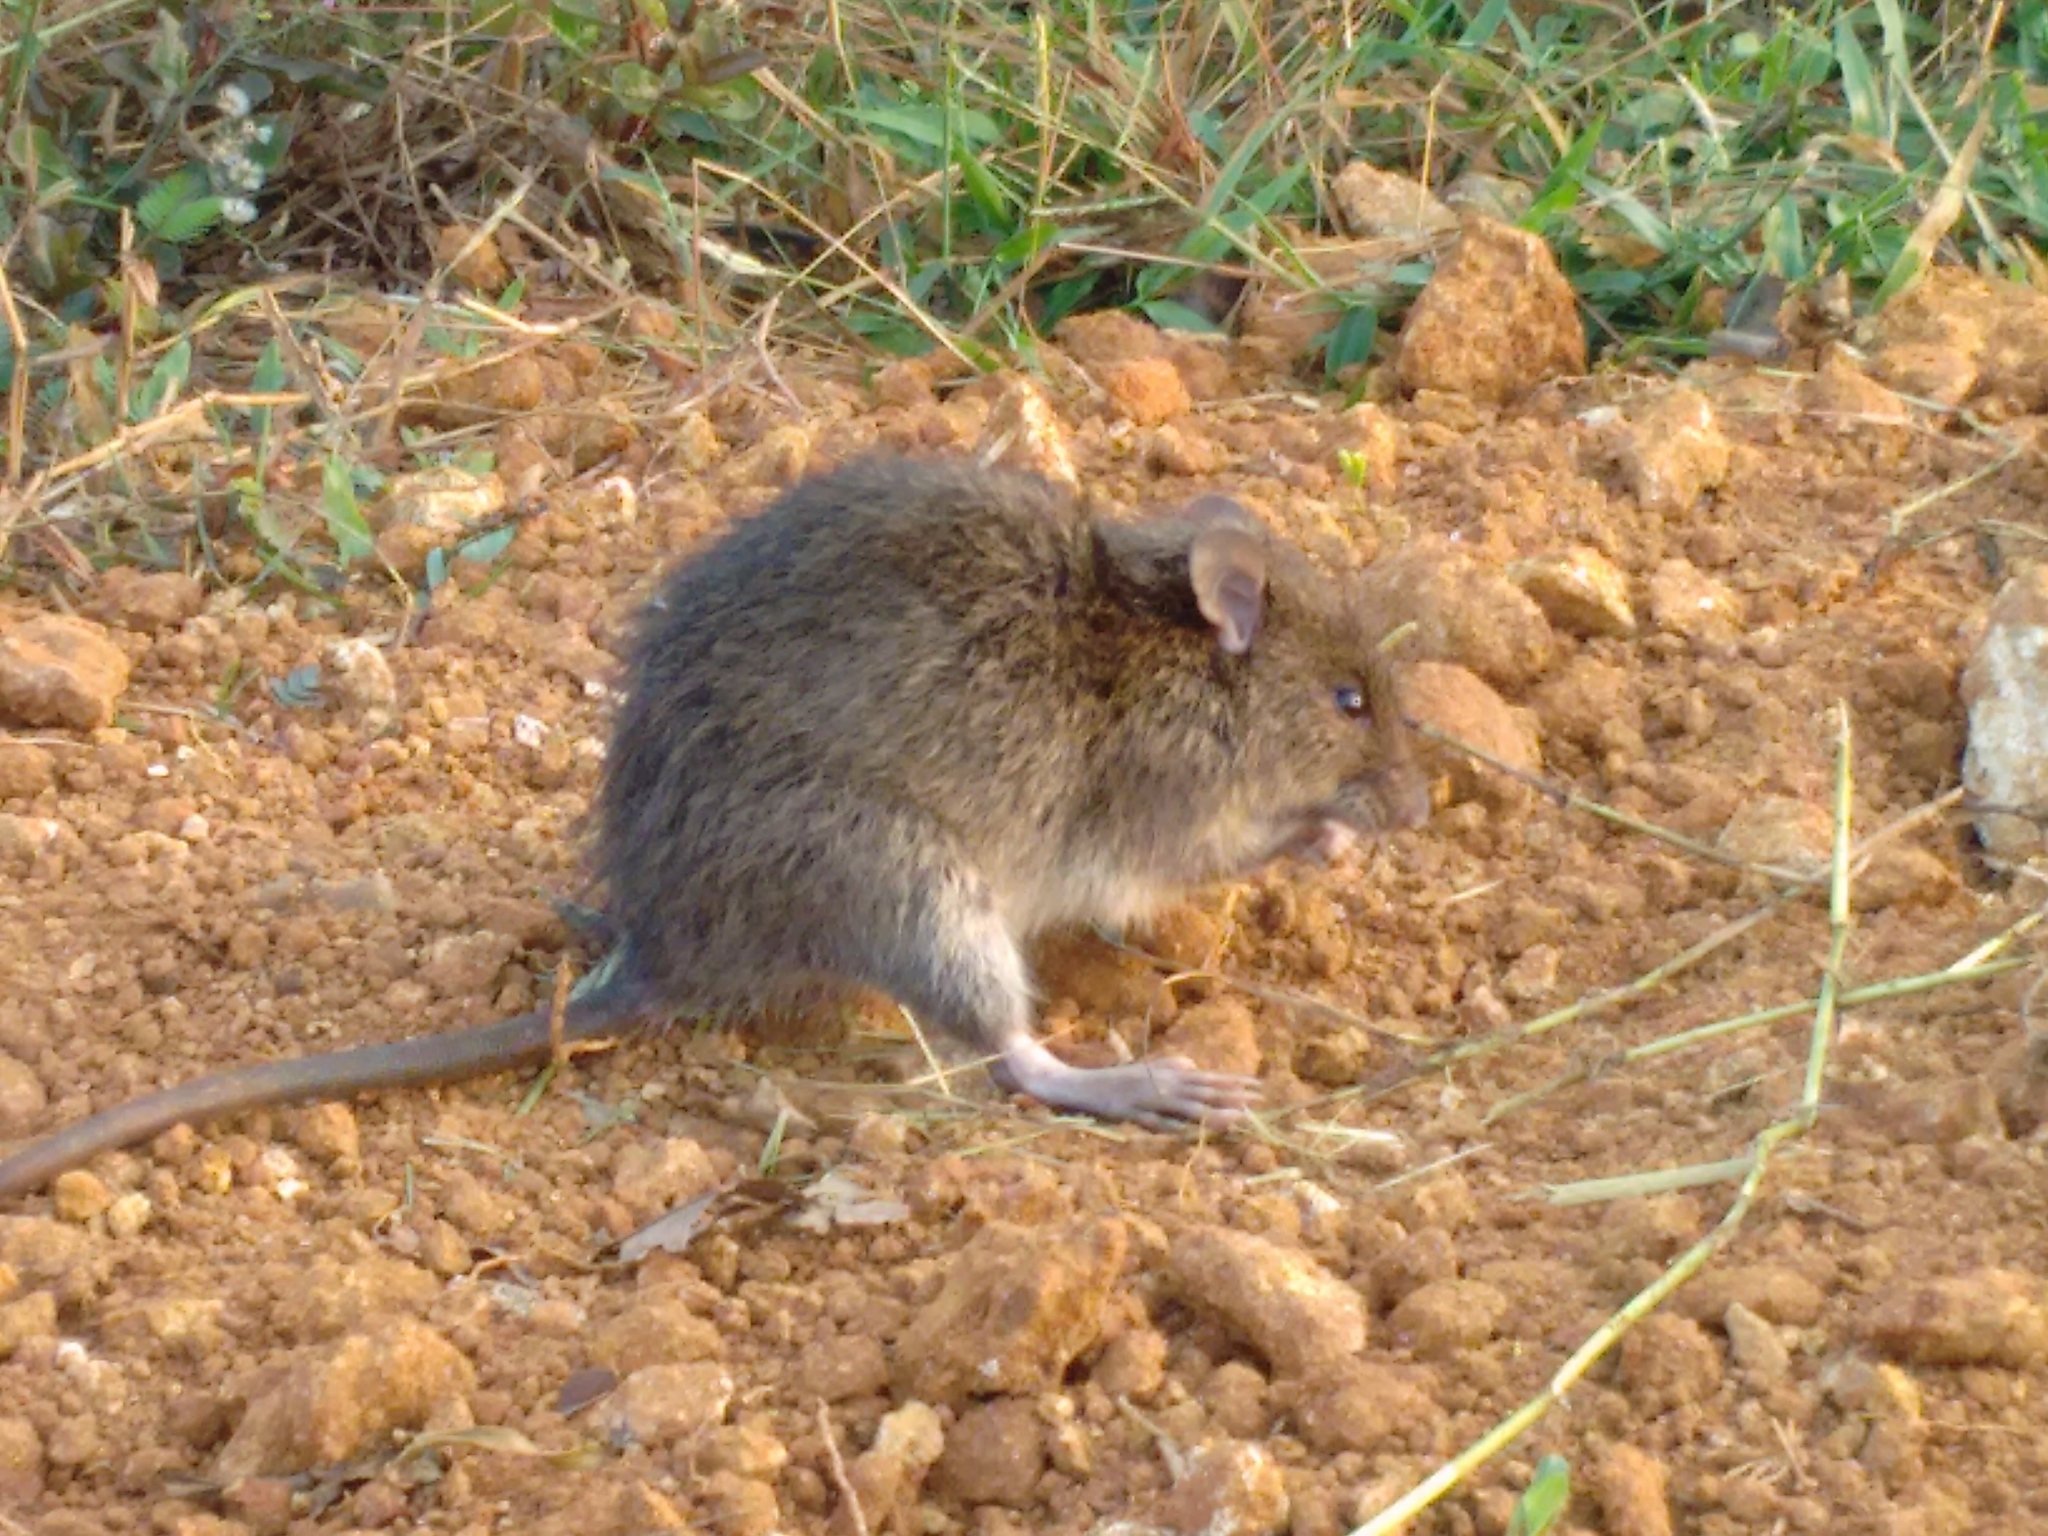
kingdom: Animalia
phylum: Chordata
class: Mammalia
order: Rodentia
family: Muridae
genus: Rattus
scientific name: Rattus norvegicus
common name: Brown rat
